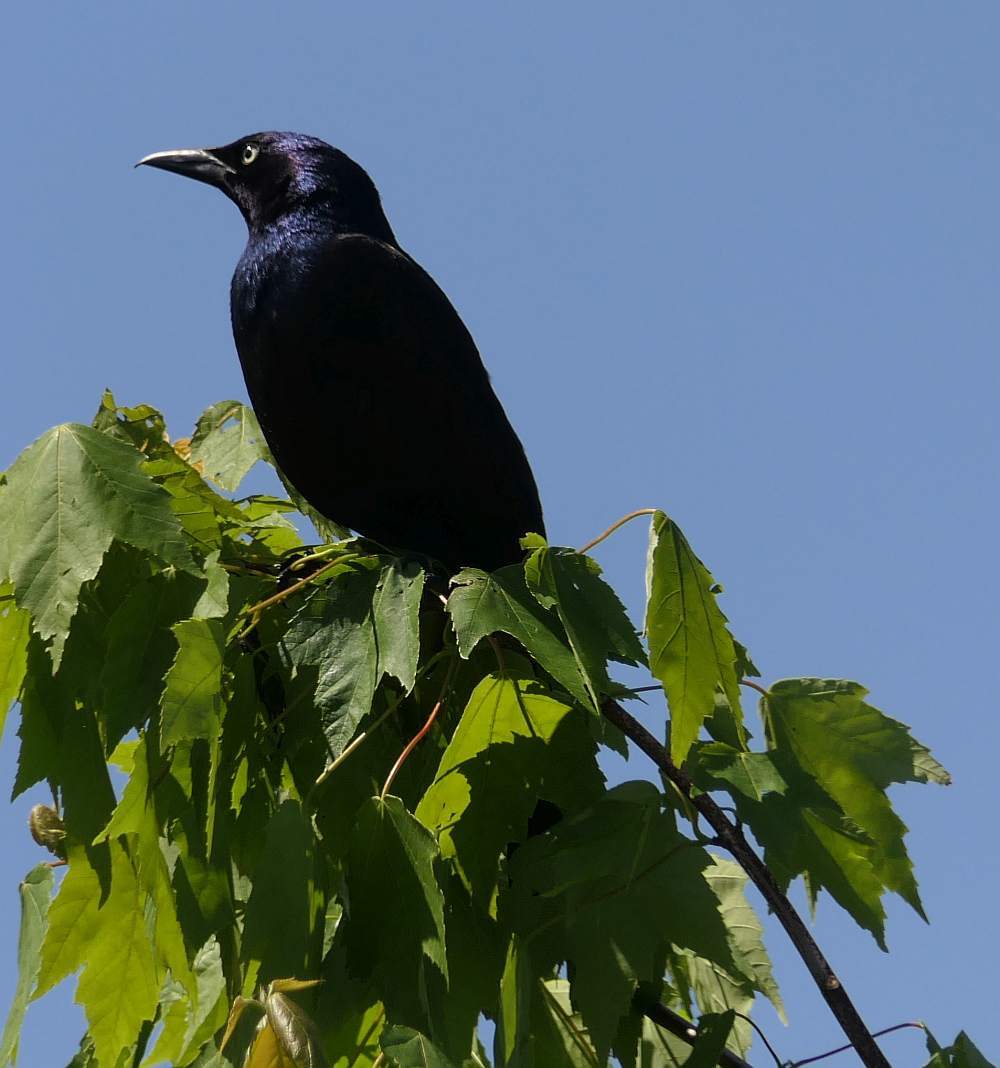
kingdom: Animalia
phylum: Chordata
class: Aves
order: Passeriformes
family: Icteridae
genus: Quiscalus
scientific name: Quiscalus quiscula
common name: Common grackle
